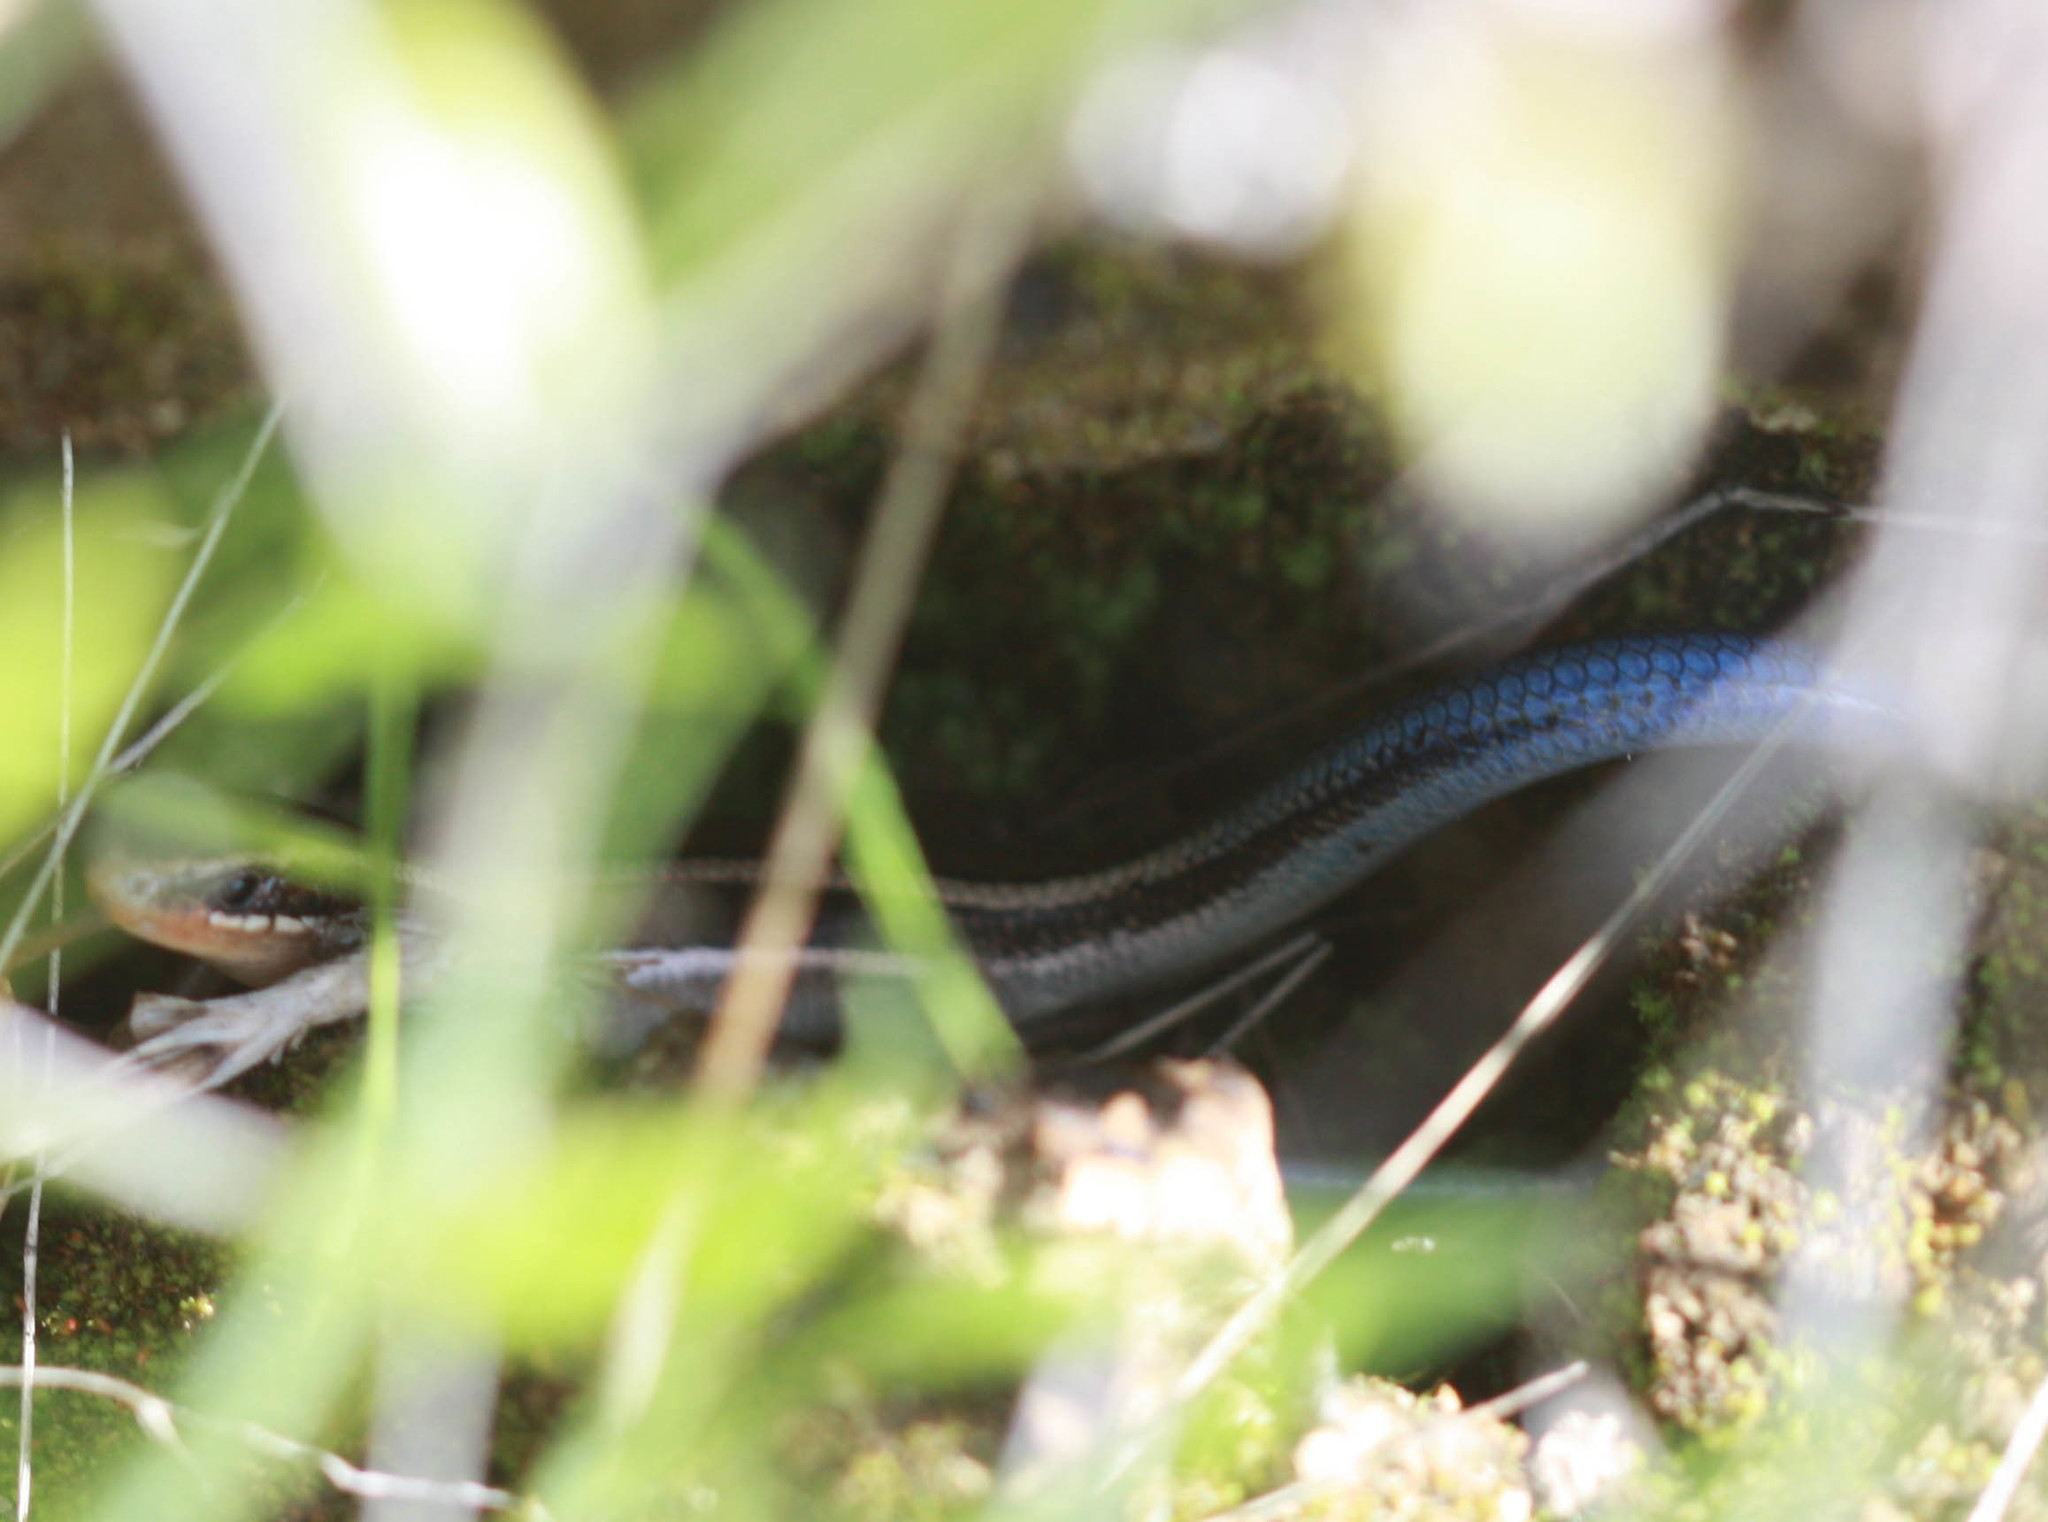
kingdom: Animalia
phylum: Chordata
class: Squamata
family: Scincidae
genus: Plestiodon
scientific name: Plestiodon skiltonianus
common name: Coronado island skink [interparietalis]
